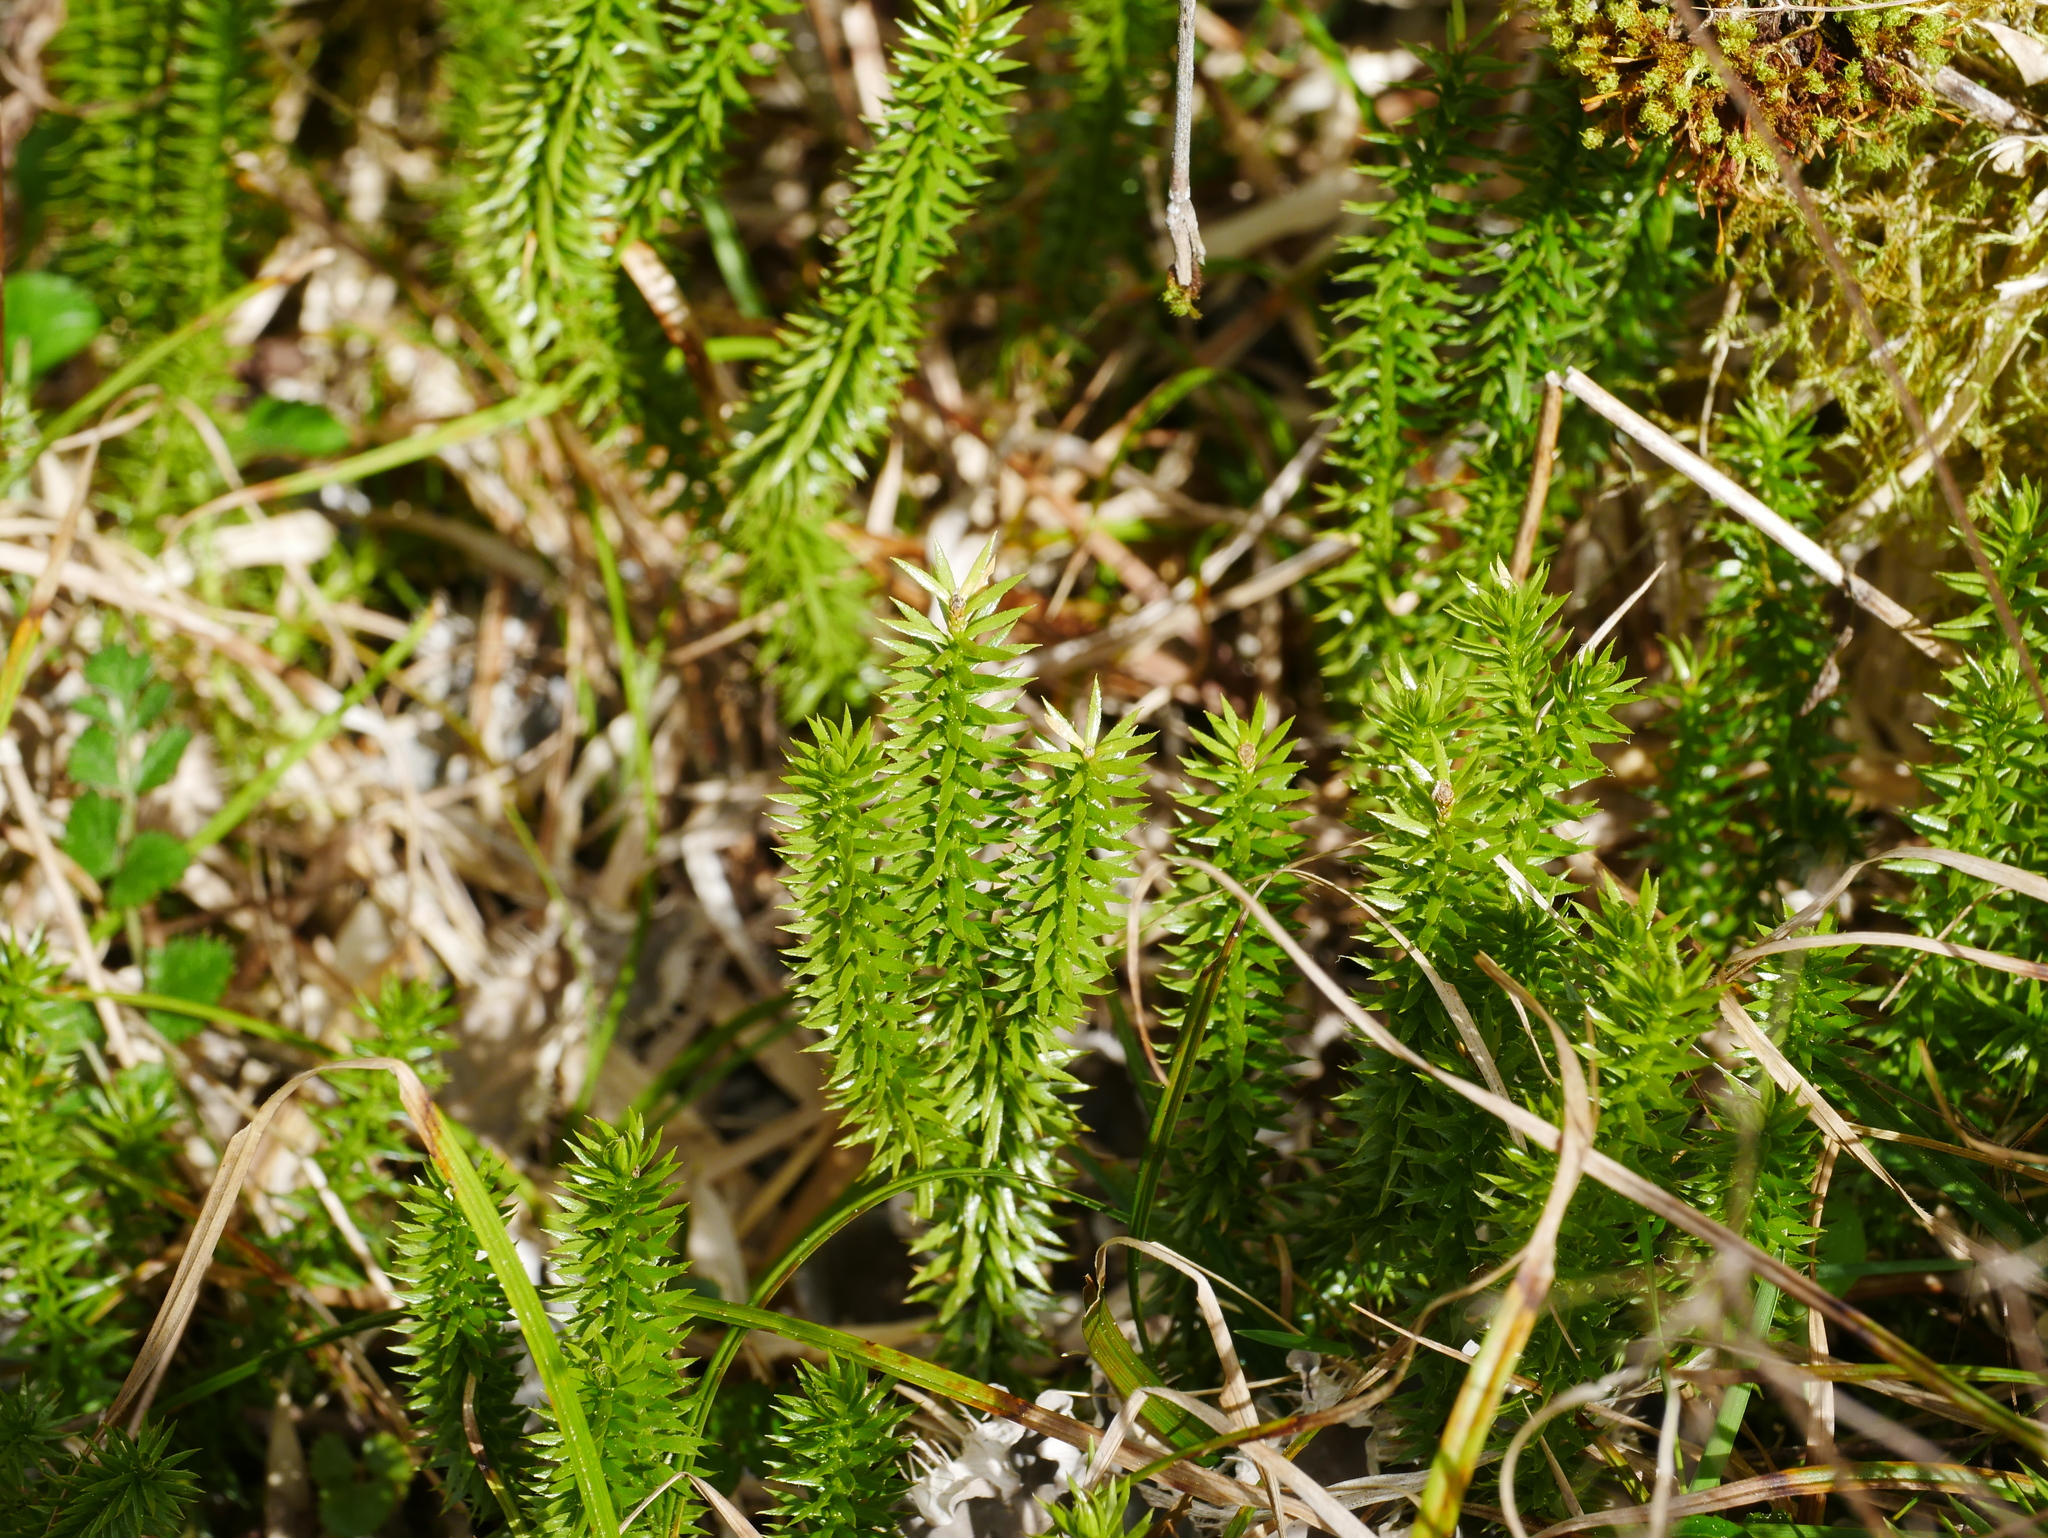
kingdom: Plantae
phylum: Tracheophyta
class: Lycopodiopsida
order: Lycopodiales
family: Lycopodiaceae
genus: Spinulum
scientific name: Spinulum annotinum
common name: Interrupted club-moss
